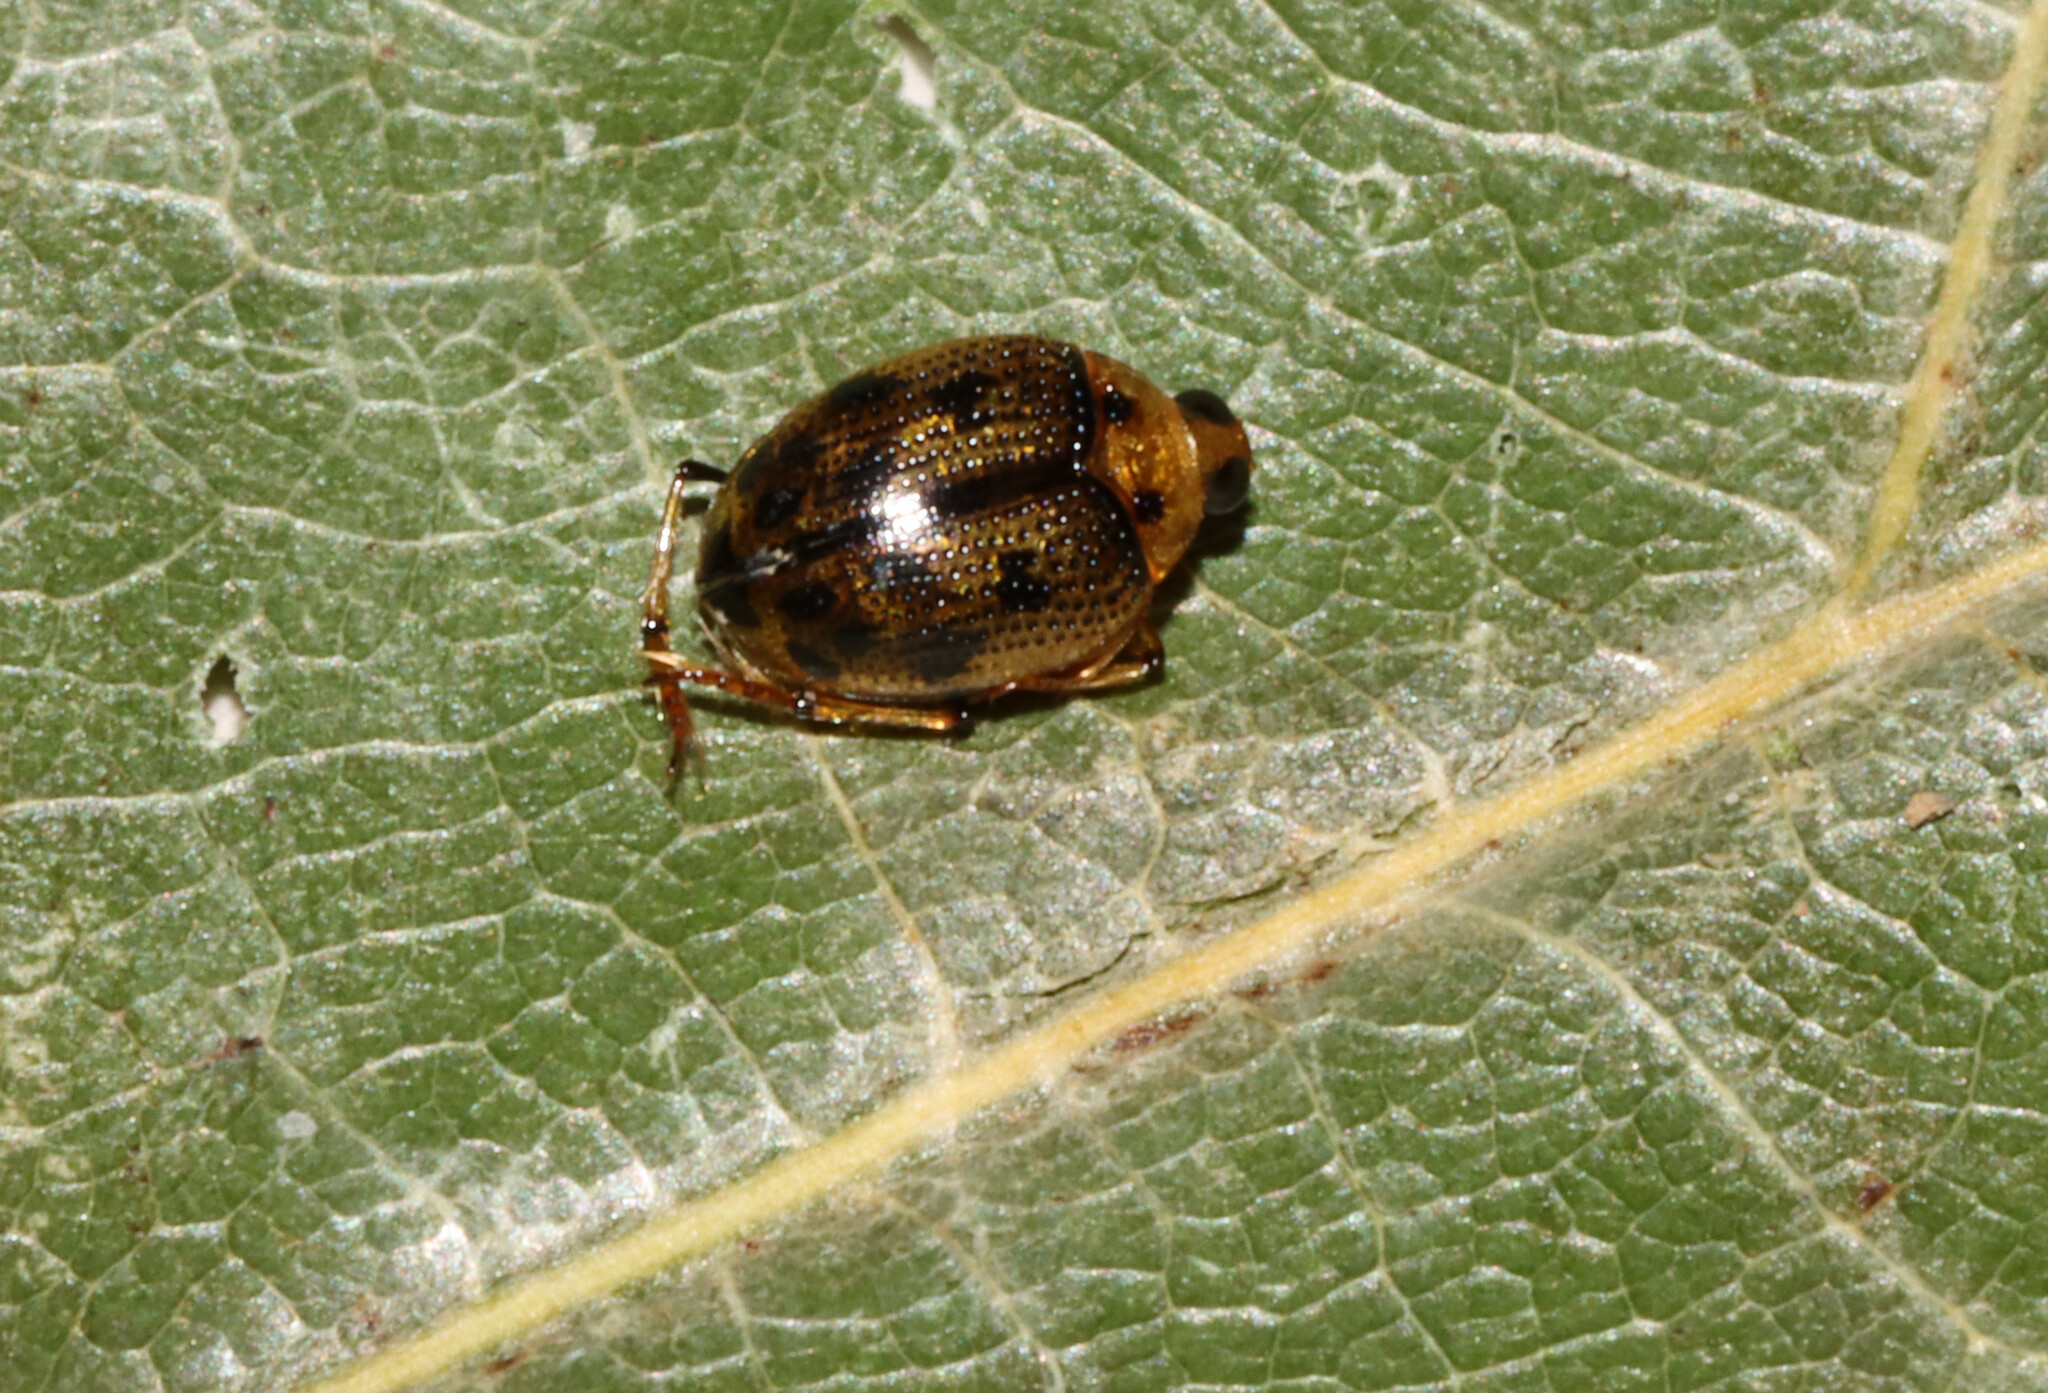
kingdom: Animalia
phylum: Arthropoda
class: Insecta
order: Coleoptera
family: Haliplidae
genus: Peltodytes
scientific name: Peltodytes
